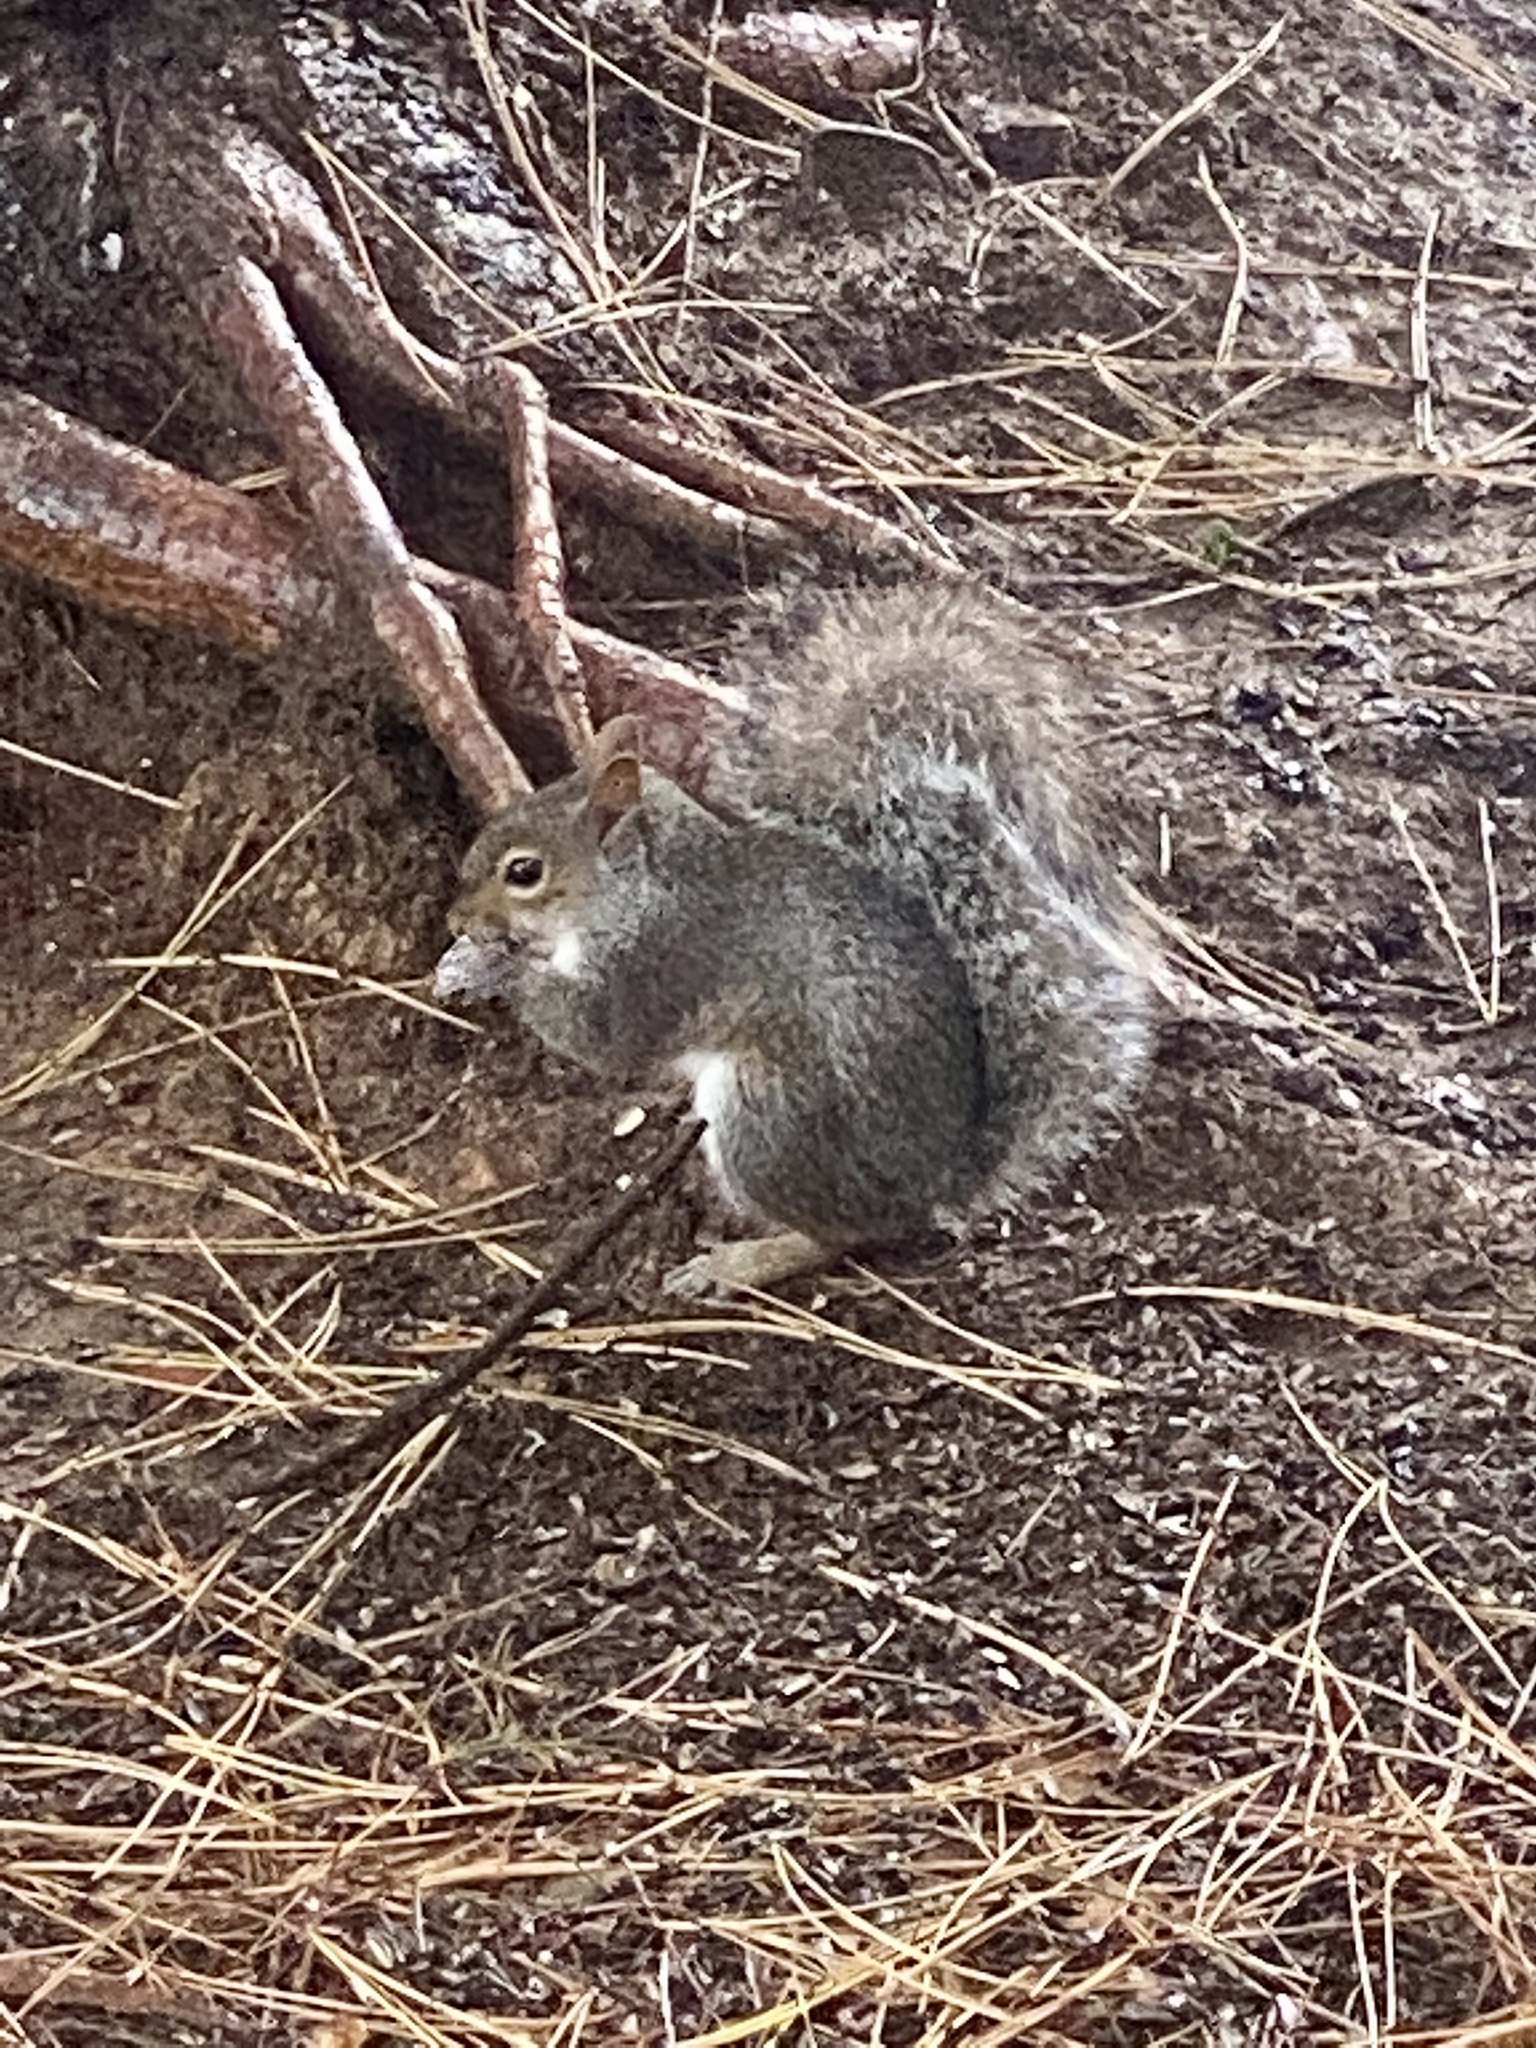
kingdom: Animalia
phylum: Chordata
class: Mammalia
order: Rodentia
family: Sciuridae
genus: Sciurus
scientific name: Sciurus carolinensis
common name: Eastern gray squirrel
